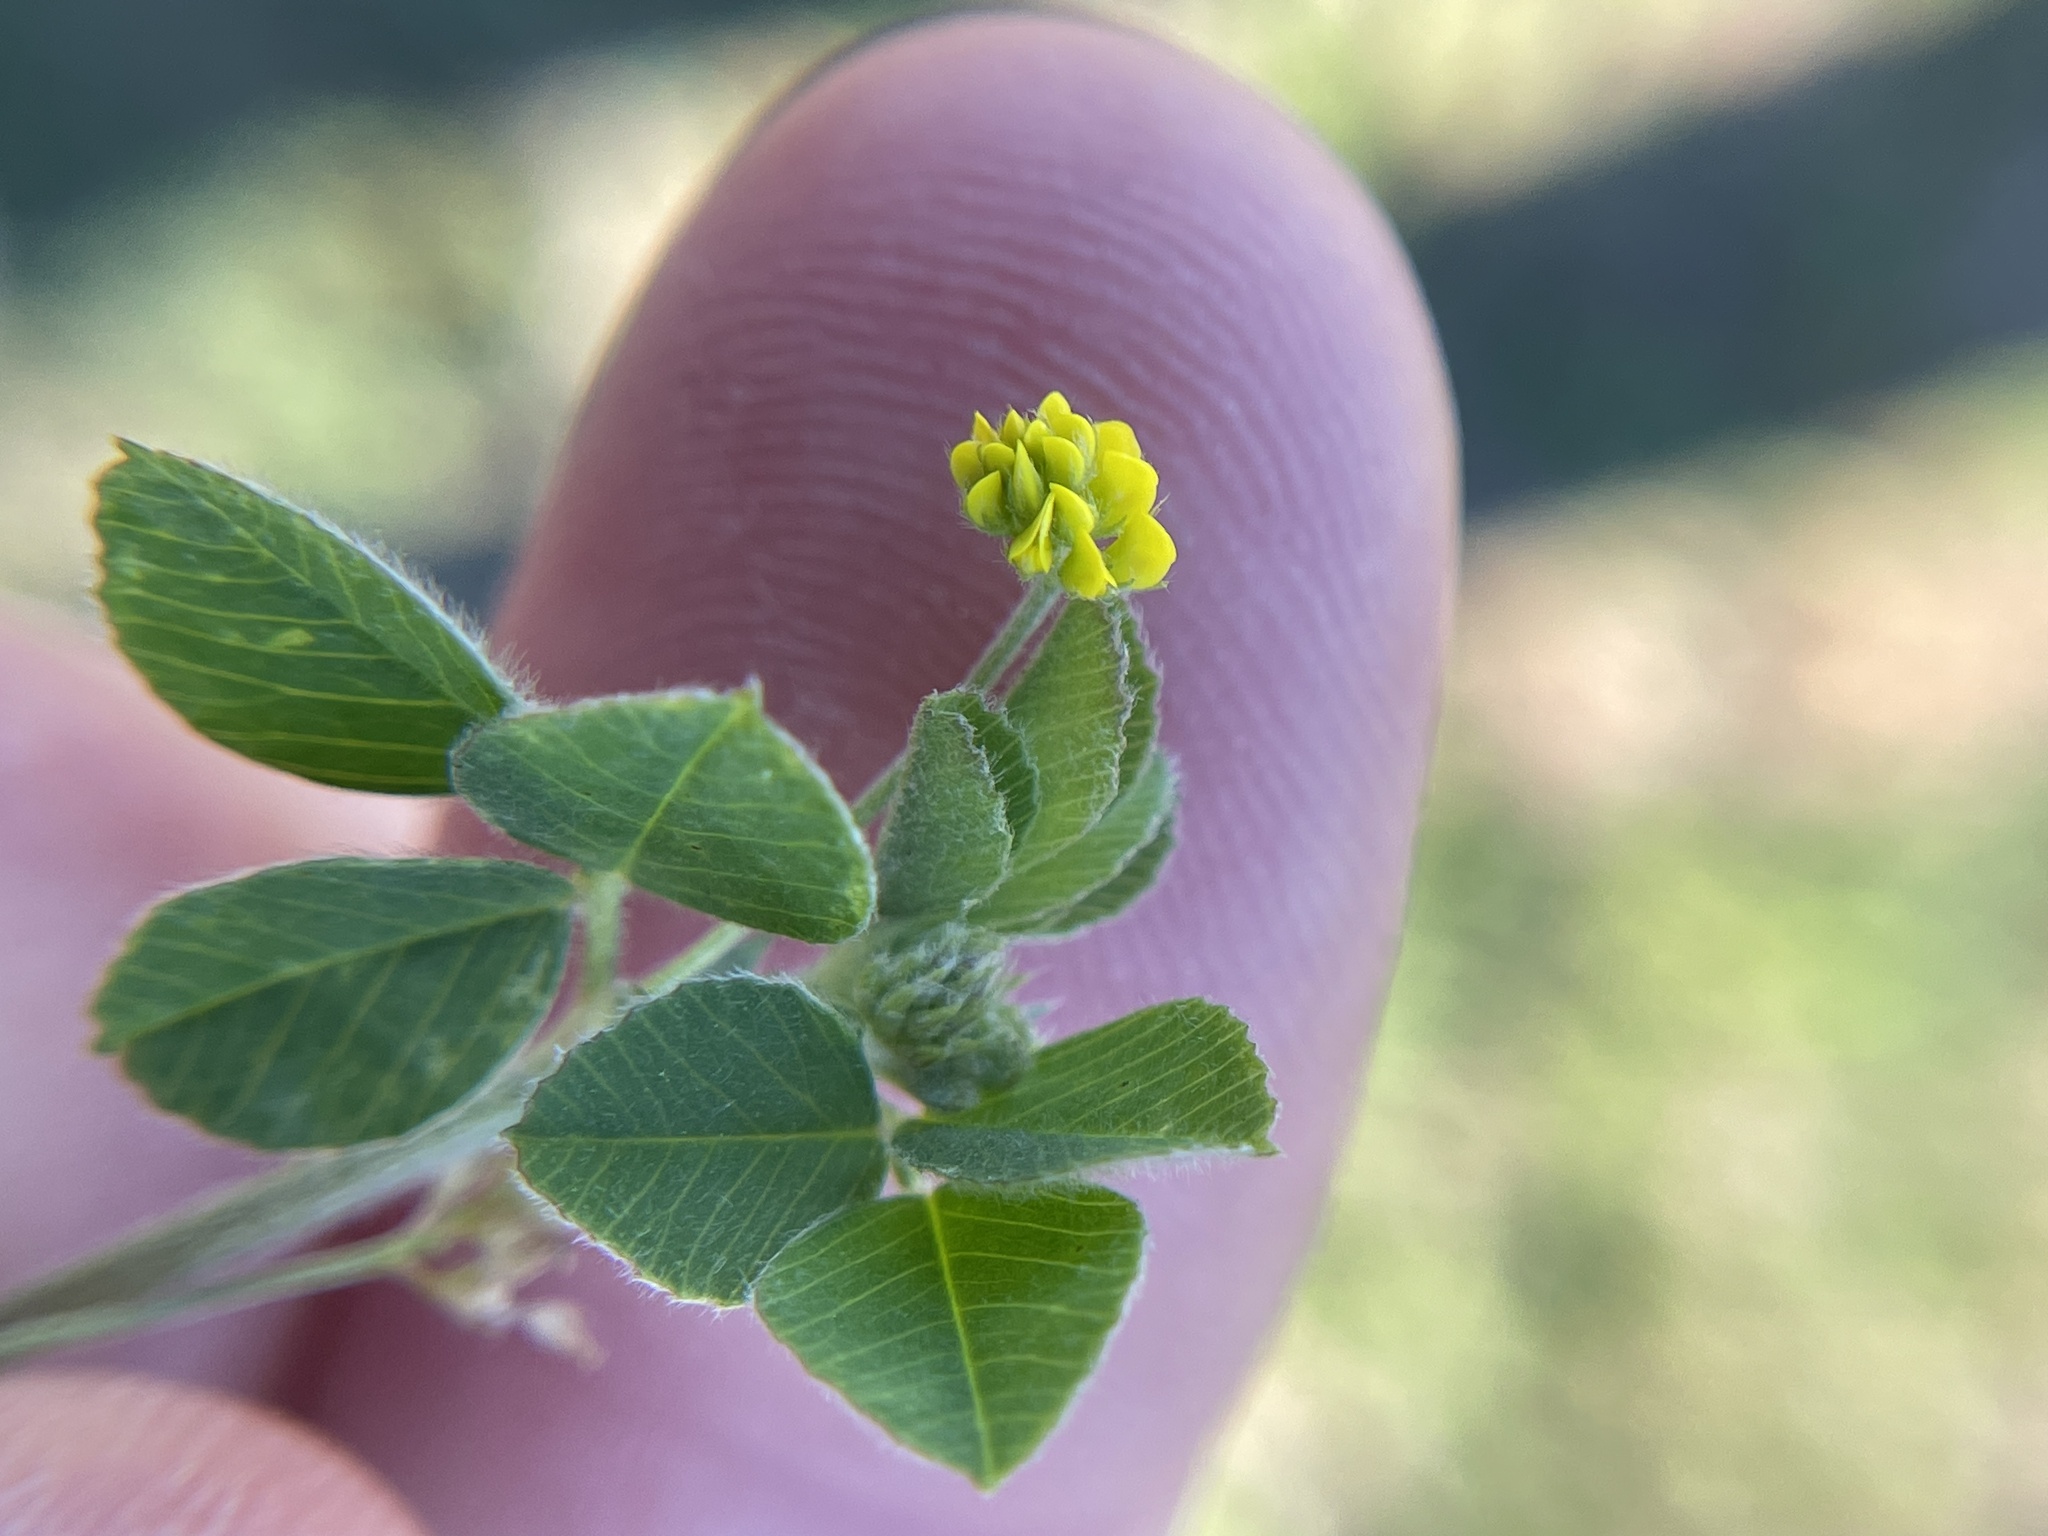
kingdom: Plantae
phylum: Tracheophyta
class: Magnoliopsida
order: Fabales
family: Fabaceae
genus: Medicago
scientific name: Medicago lupulina
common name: Black medick
